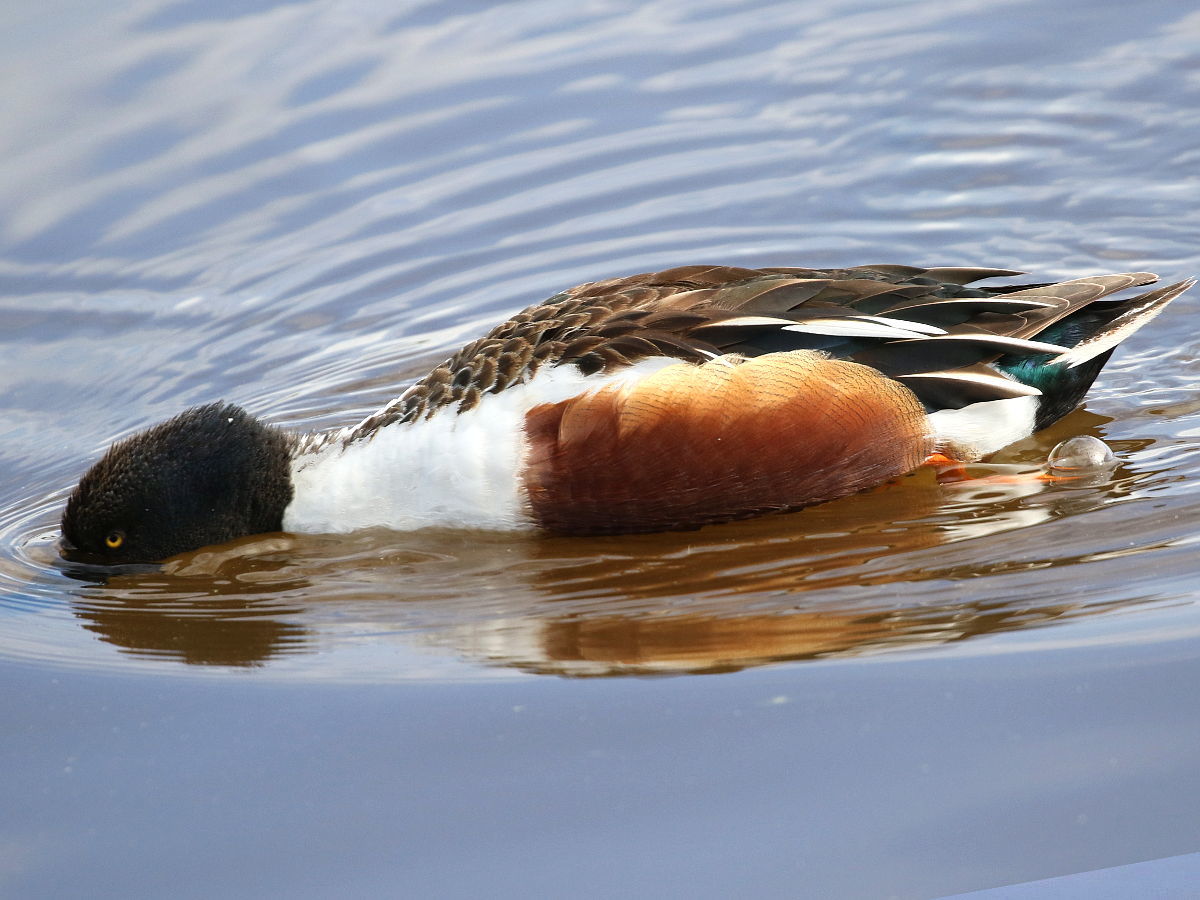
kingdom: Animalia
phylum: Chordata
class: Aves
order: Anseriformes
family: Anatidae
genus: Spatula
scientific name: Spatula clypeata
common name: Northern shoveler
